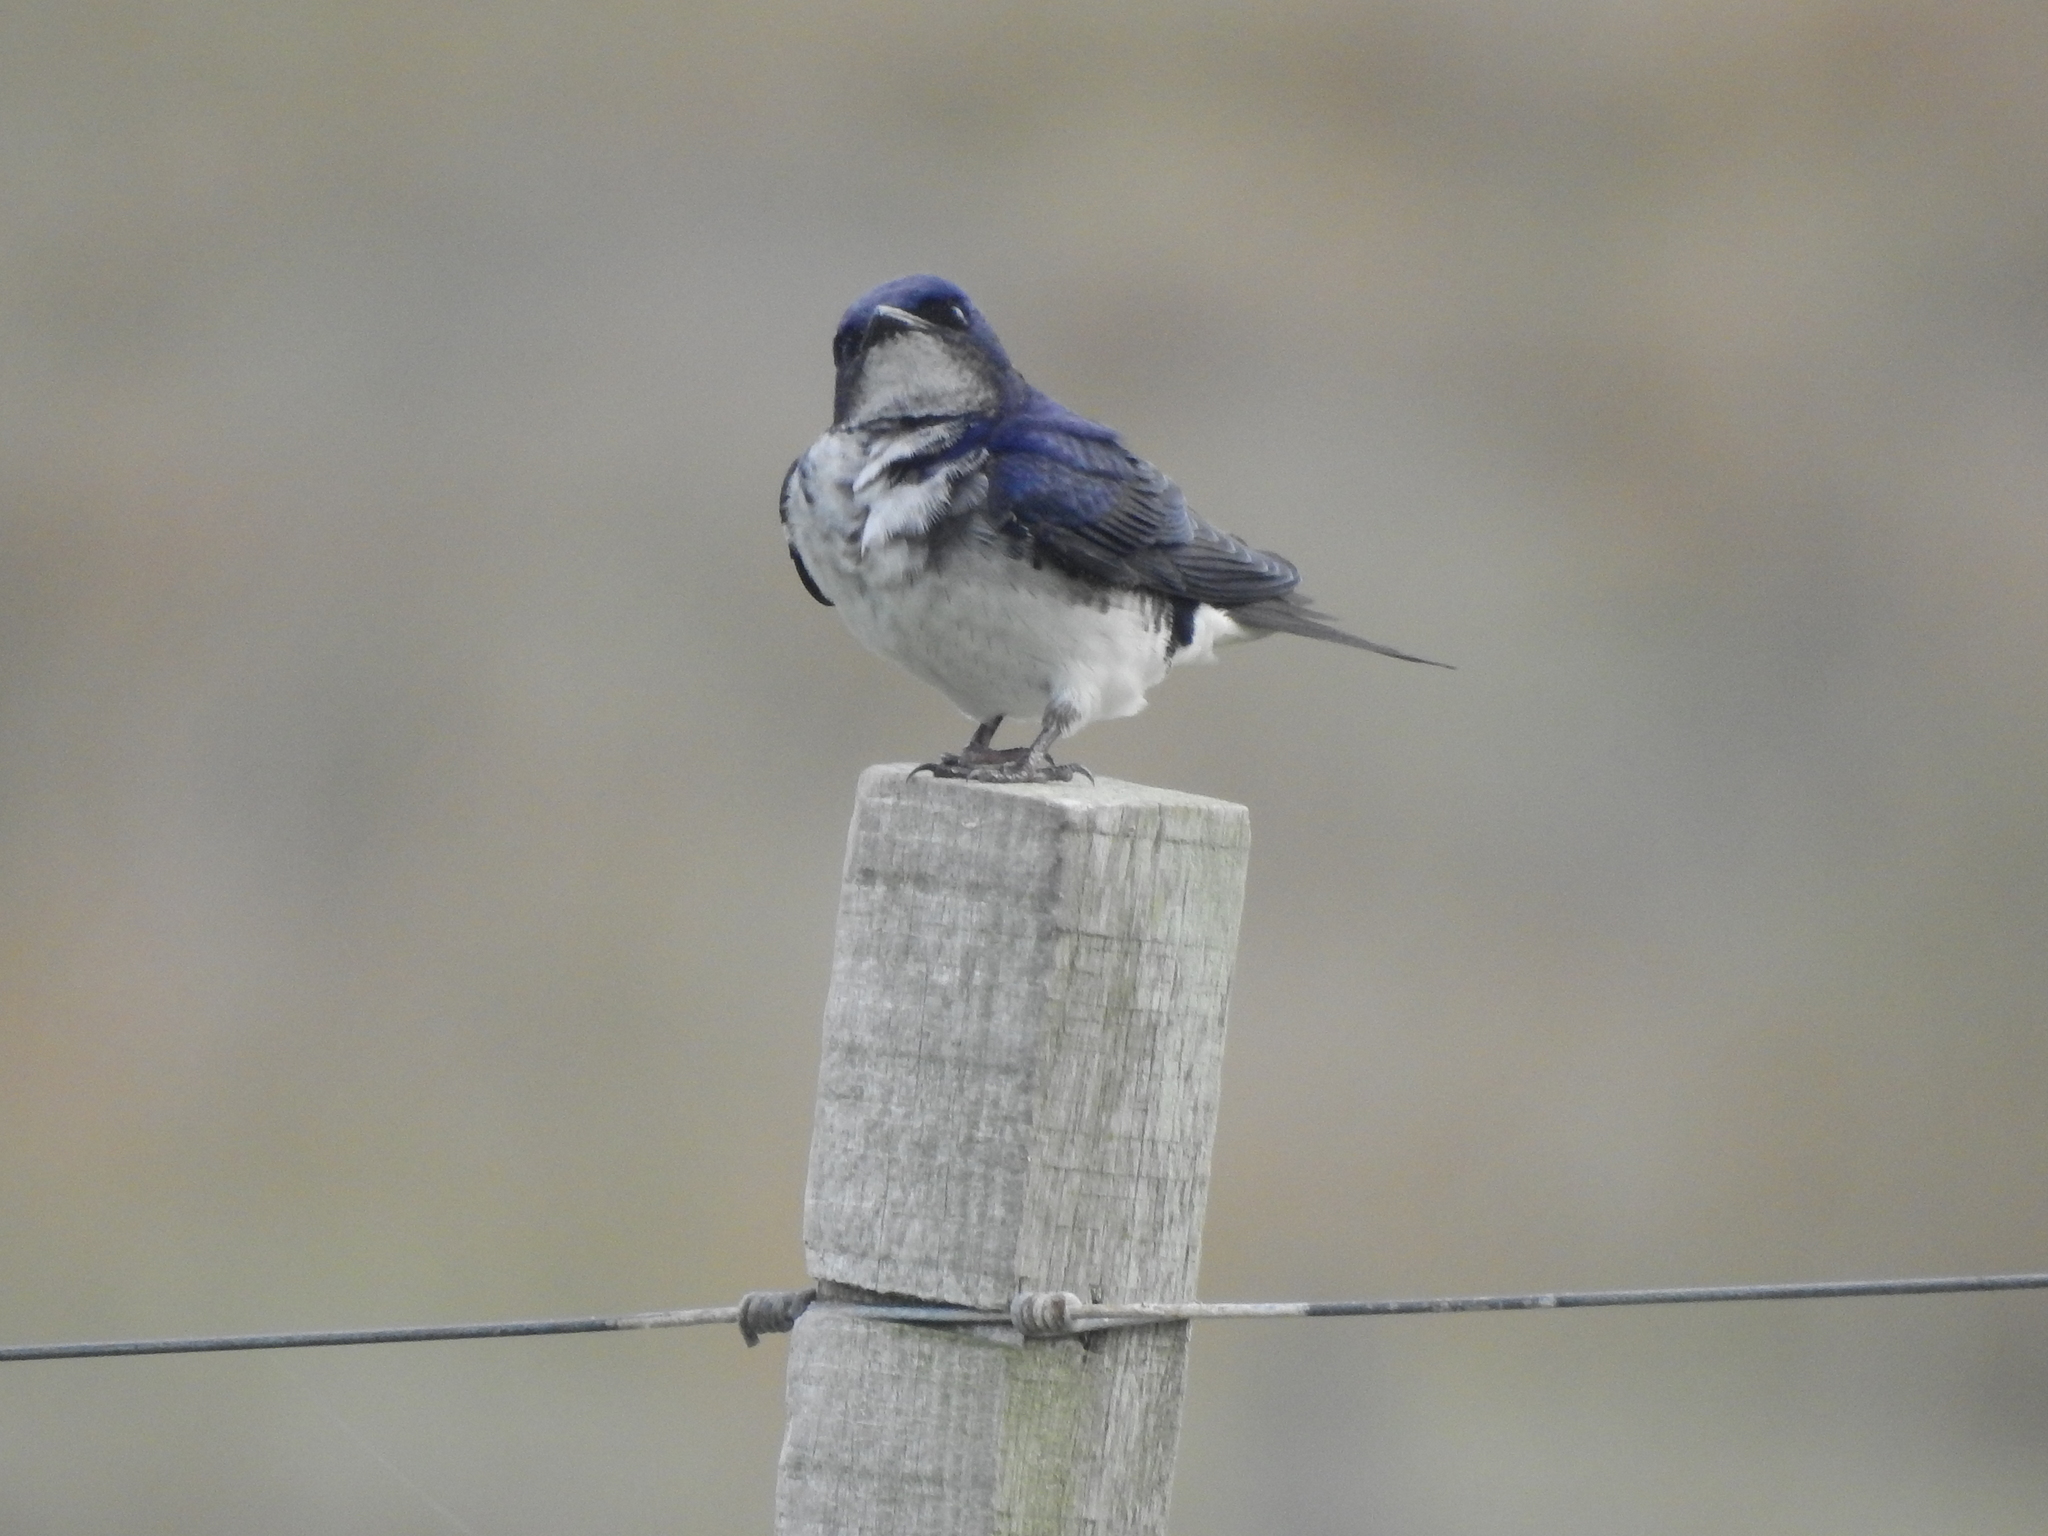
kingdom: Animalia
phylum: Chordata
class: Aves
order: Passeriformes
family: Hirundinidae
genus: Progne
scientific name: Progne chalybea
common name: Grey-breasted martin
